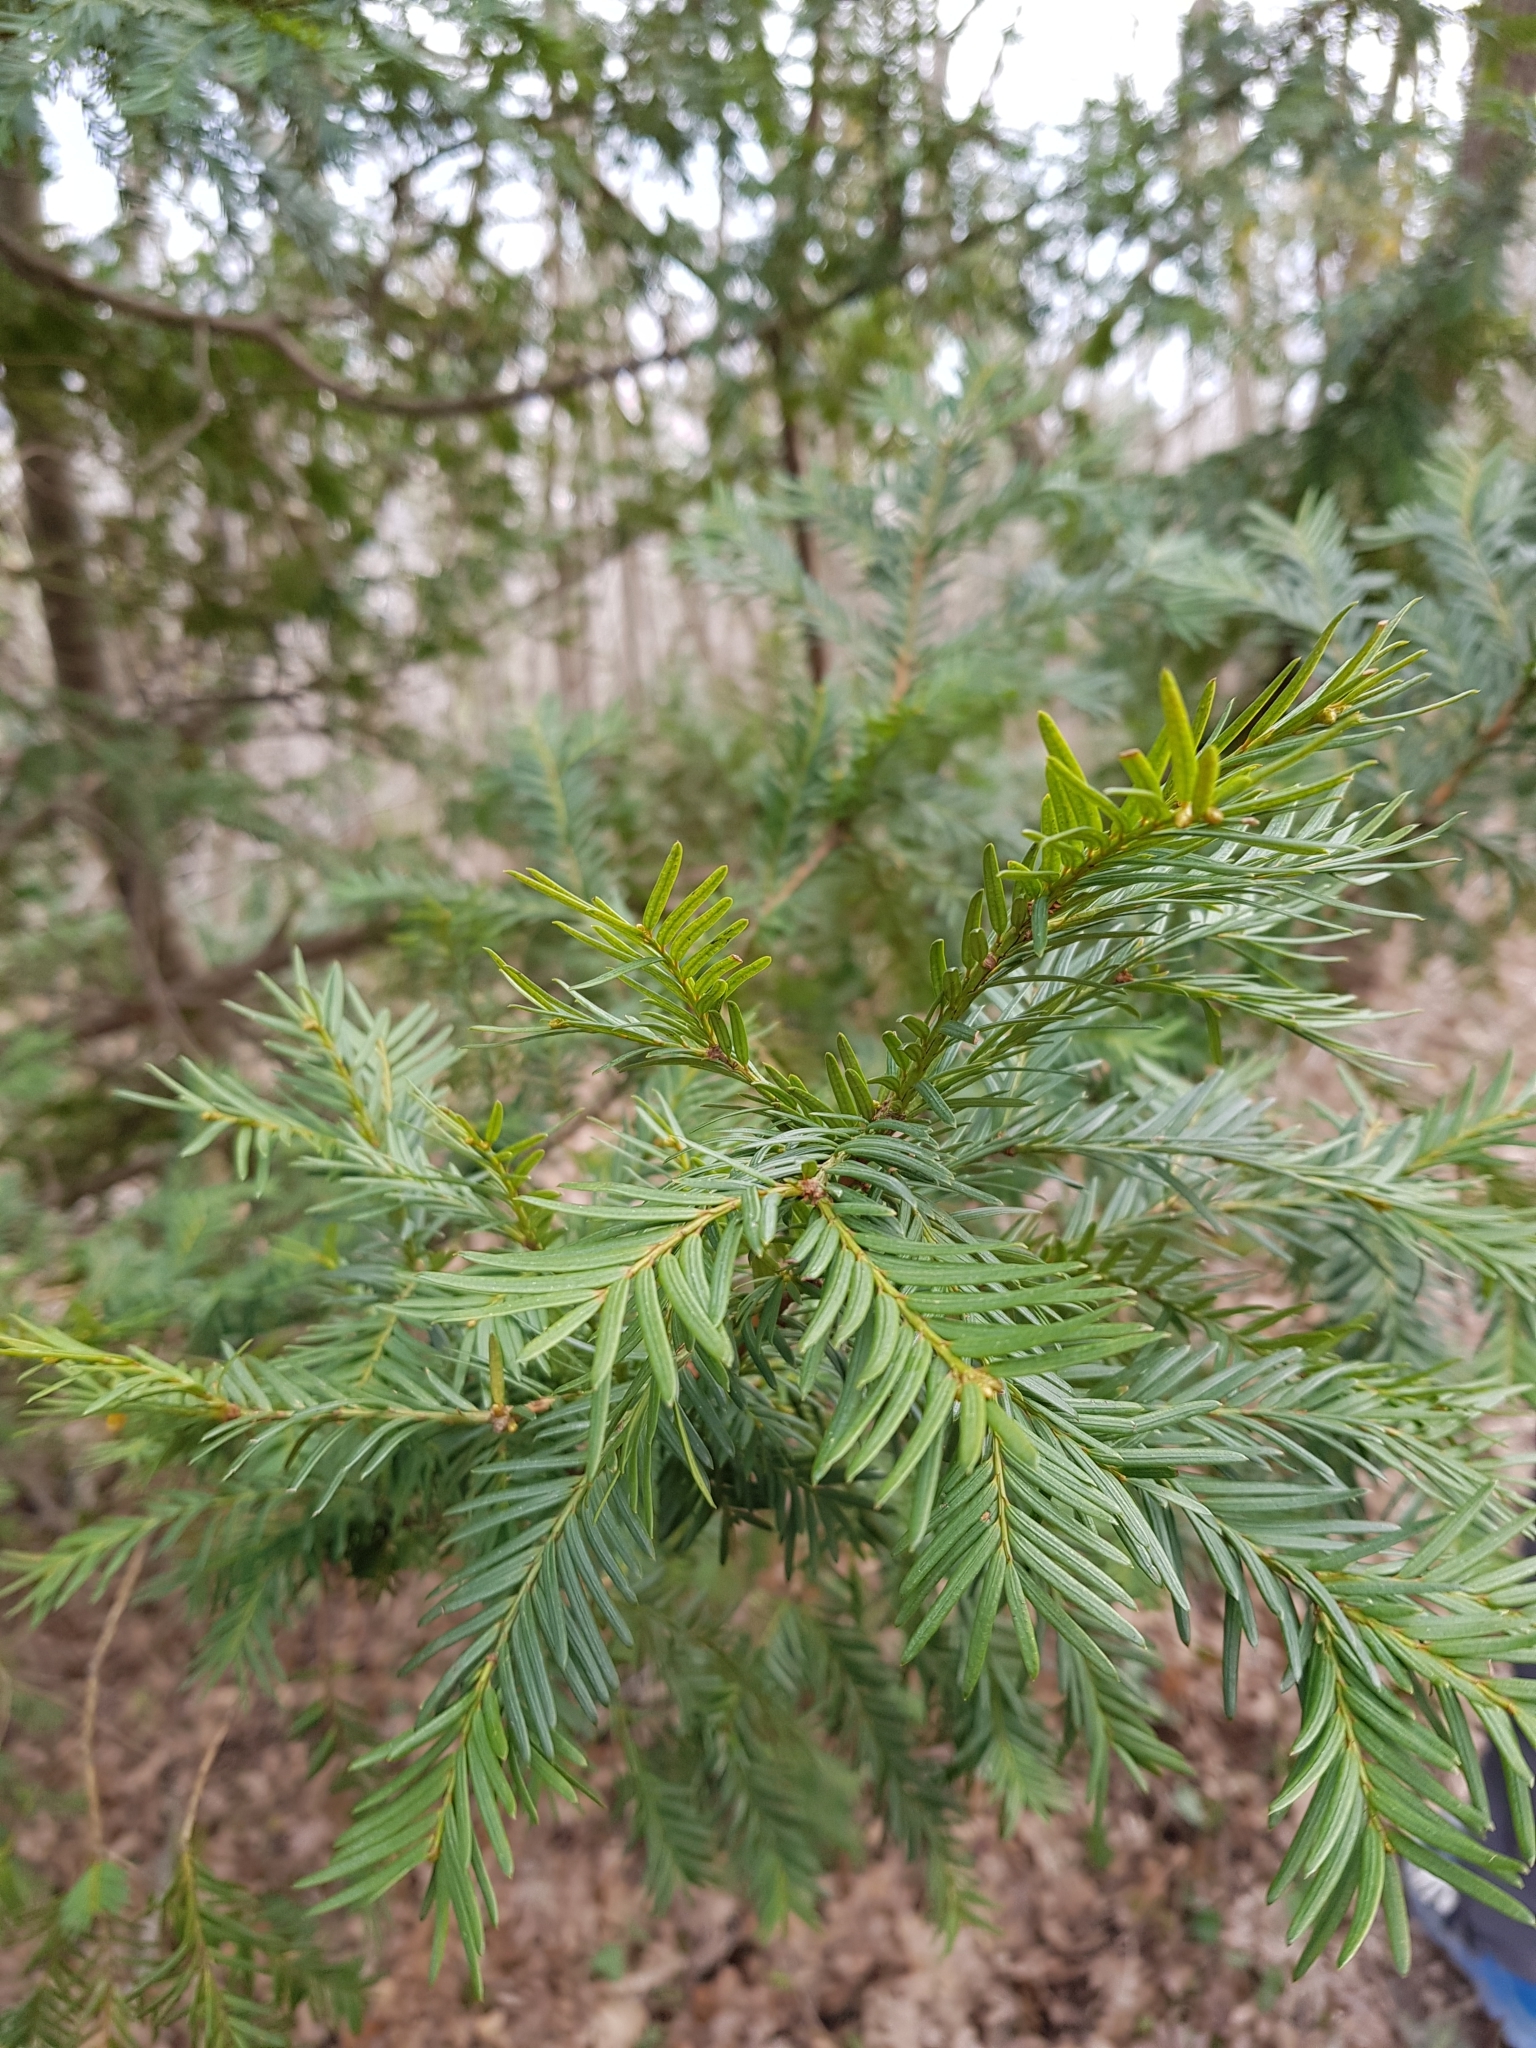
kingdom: Plantae
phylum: Tracheophyta
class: Pinopsida
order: Pinales
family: Taxaceae
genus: Taxus
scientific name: Taxus baccata
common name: Yew
